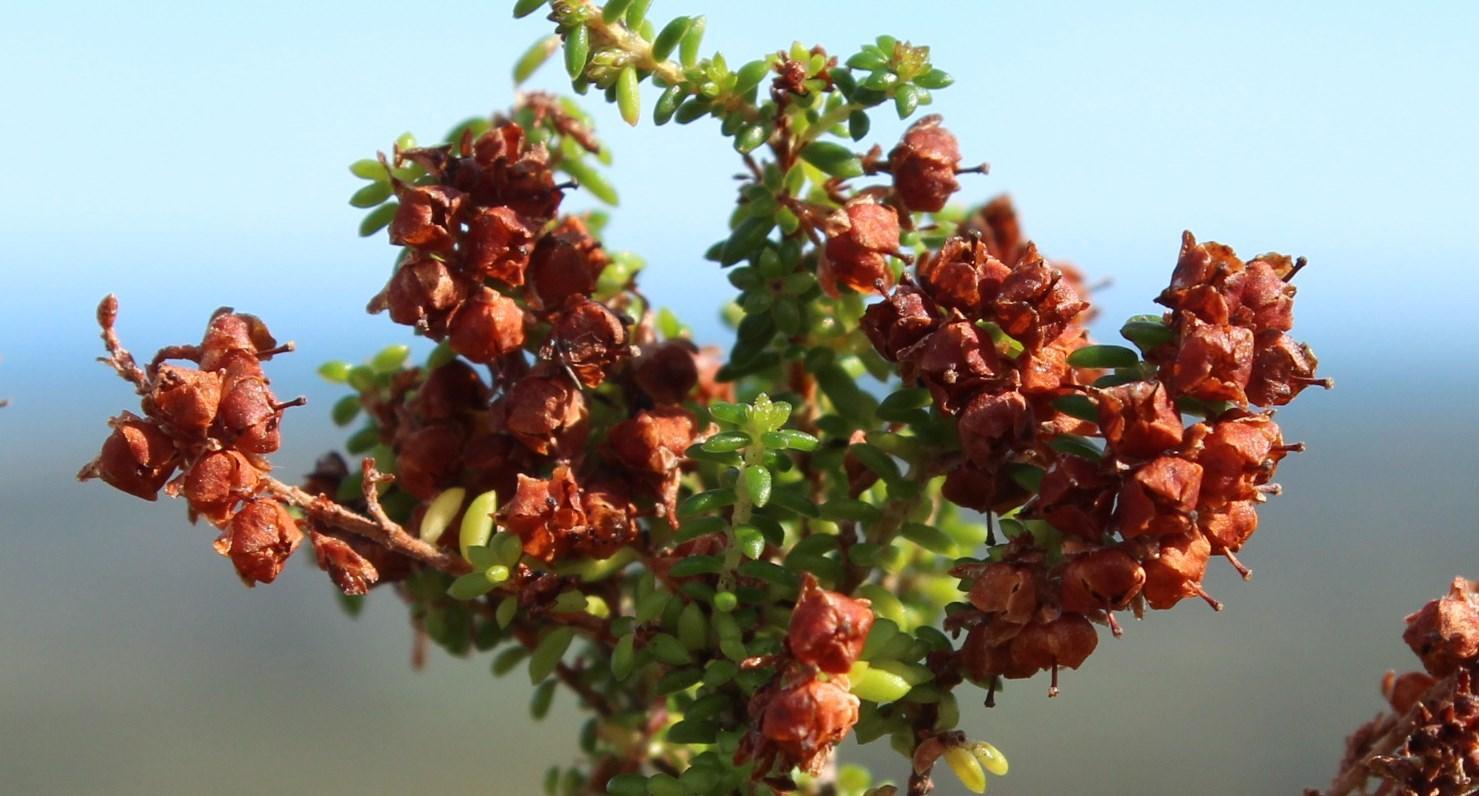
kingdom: Plantae
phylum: Tracheophyta
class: Magnoliopsida
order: Ericales
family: Ericaceae
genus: Erica
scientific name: Erica saxicola
